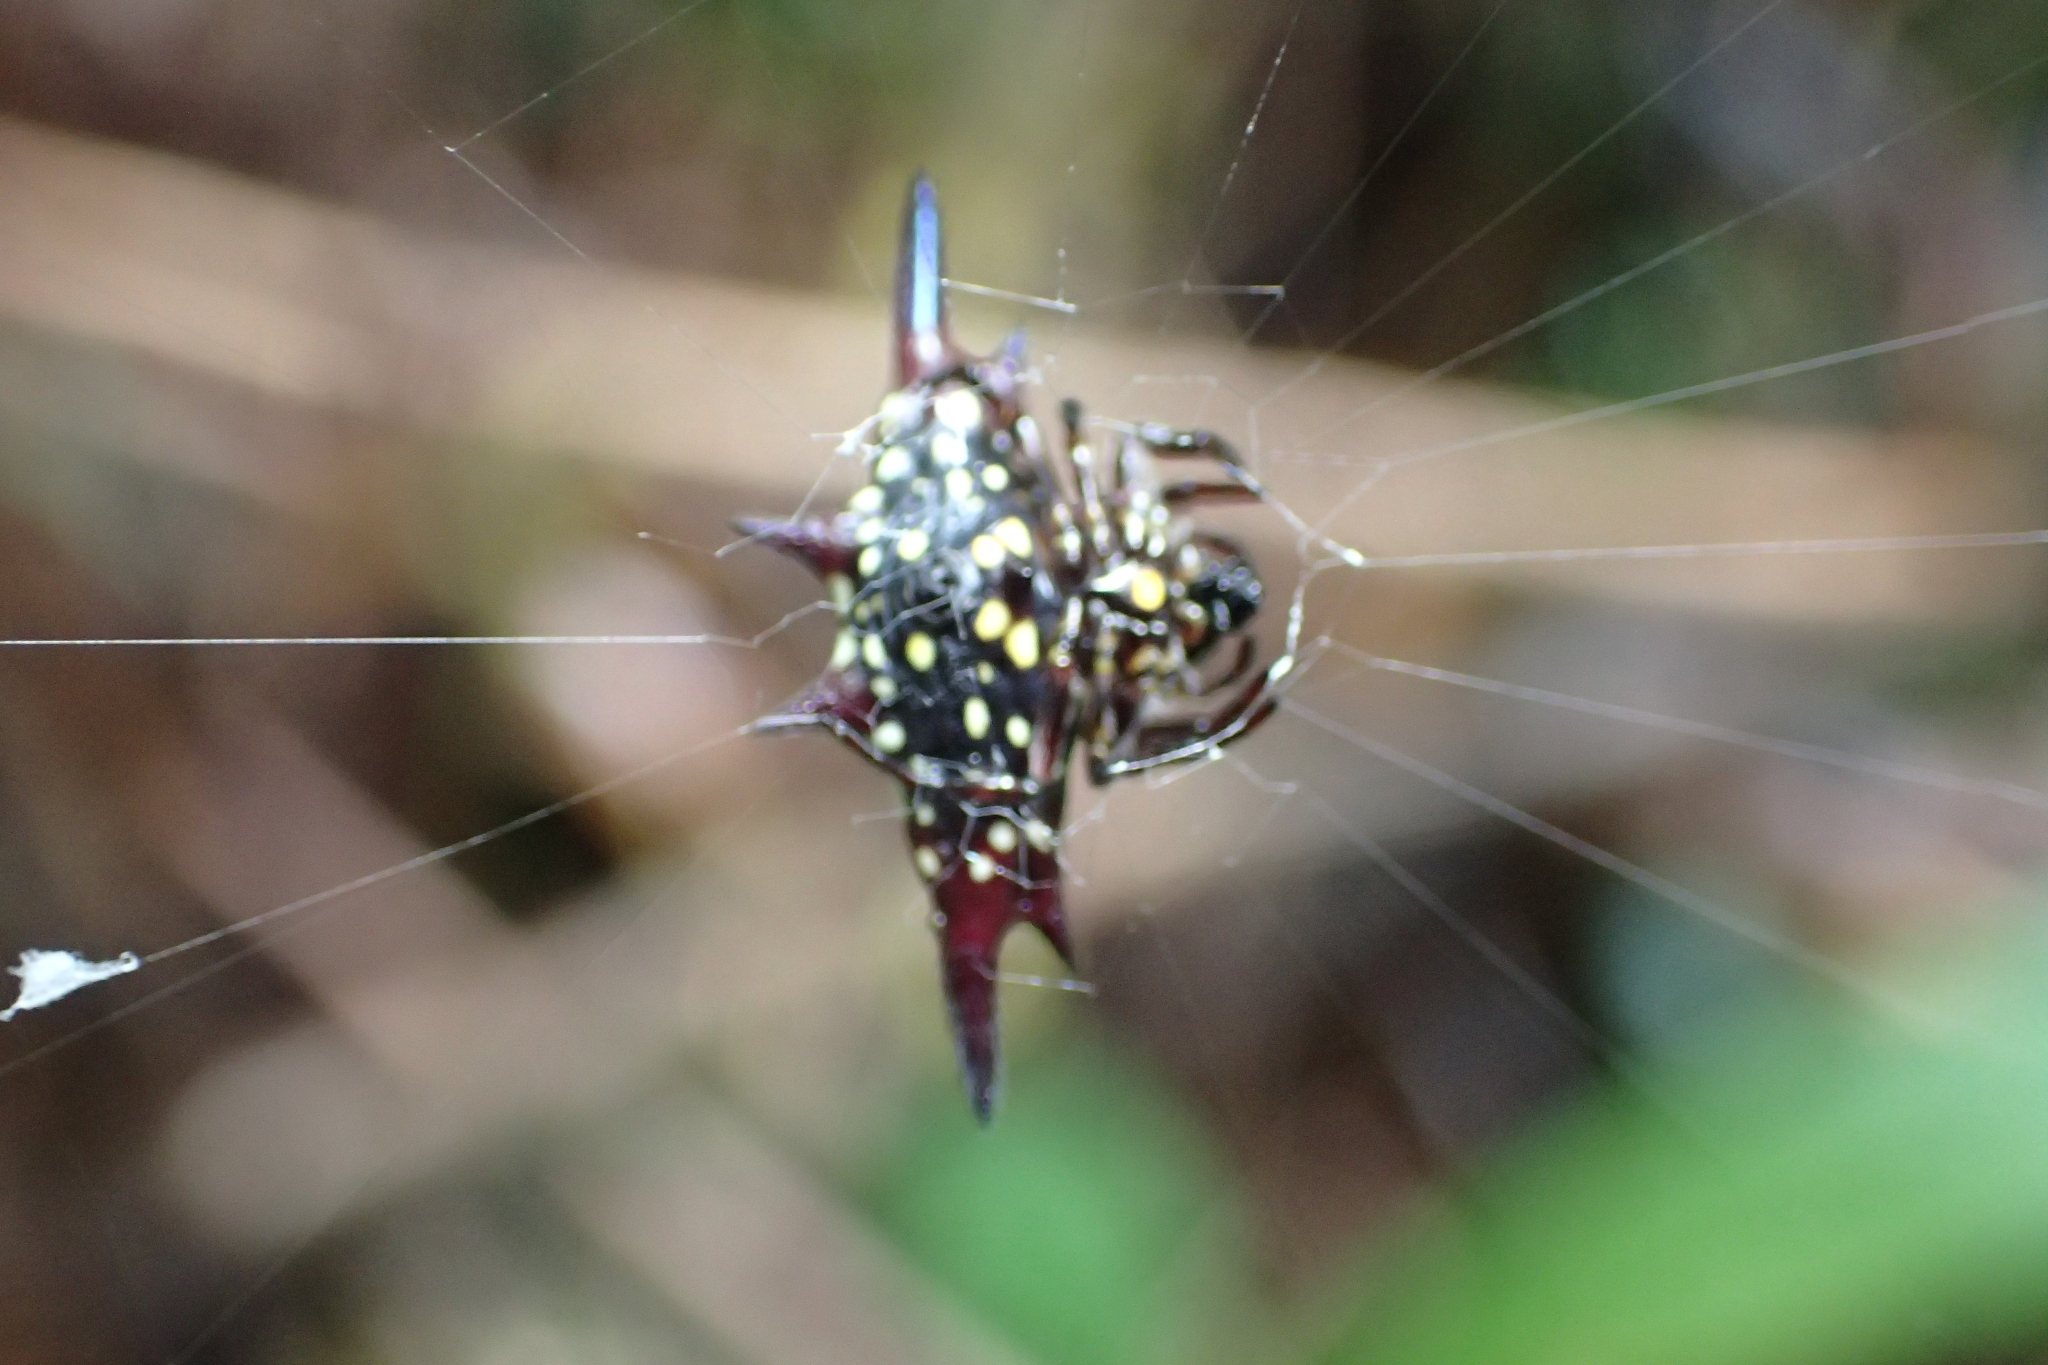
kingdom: Animalia
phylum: Arthropoda
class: Arachnida
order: Araneae
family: Araneidae
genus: Gasteracantha
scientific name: Gasteracantha fornicata
